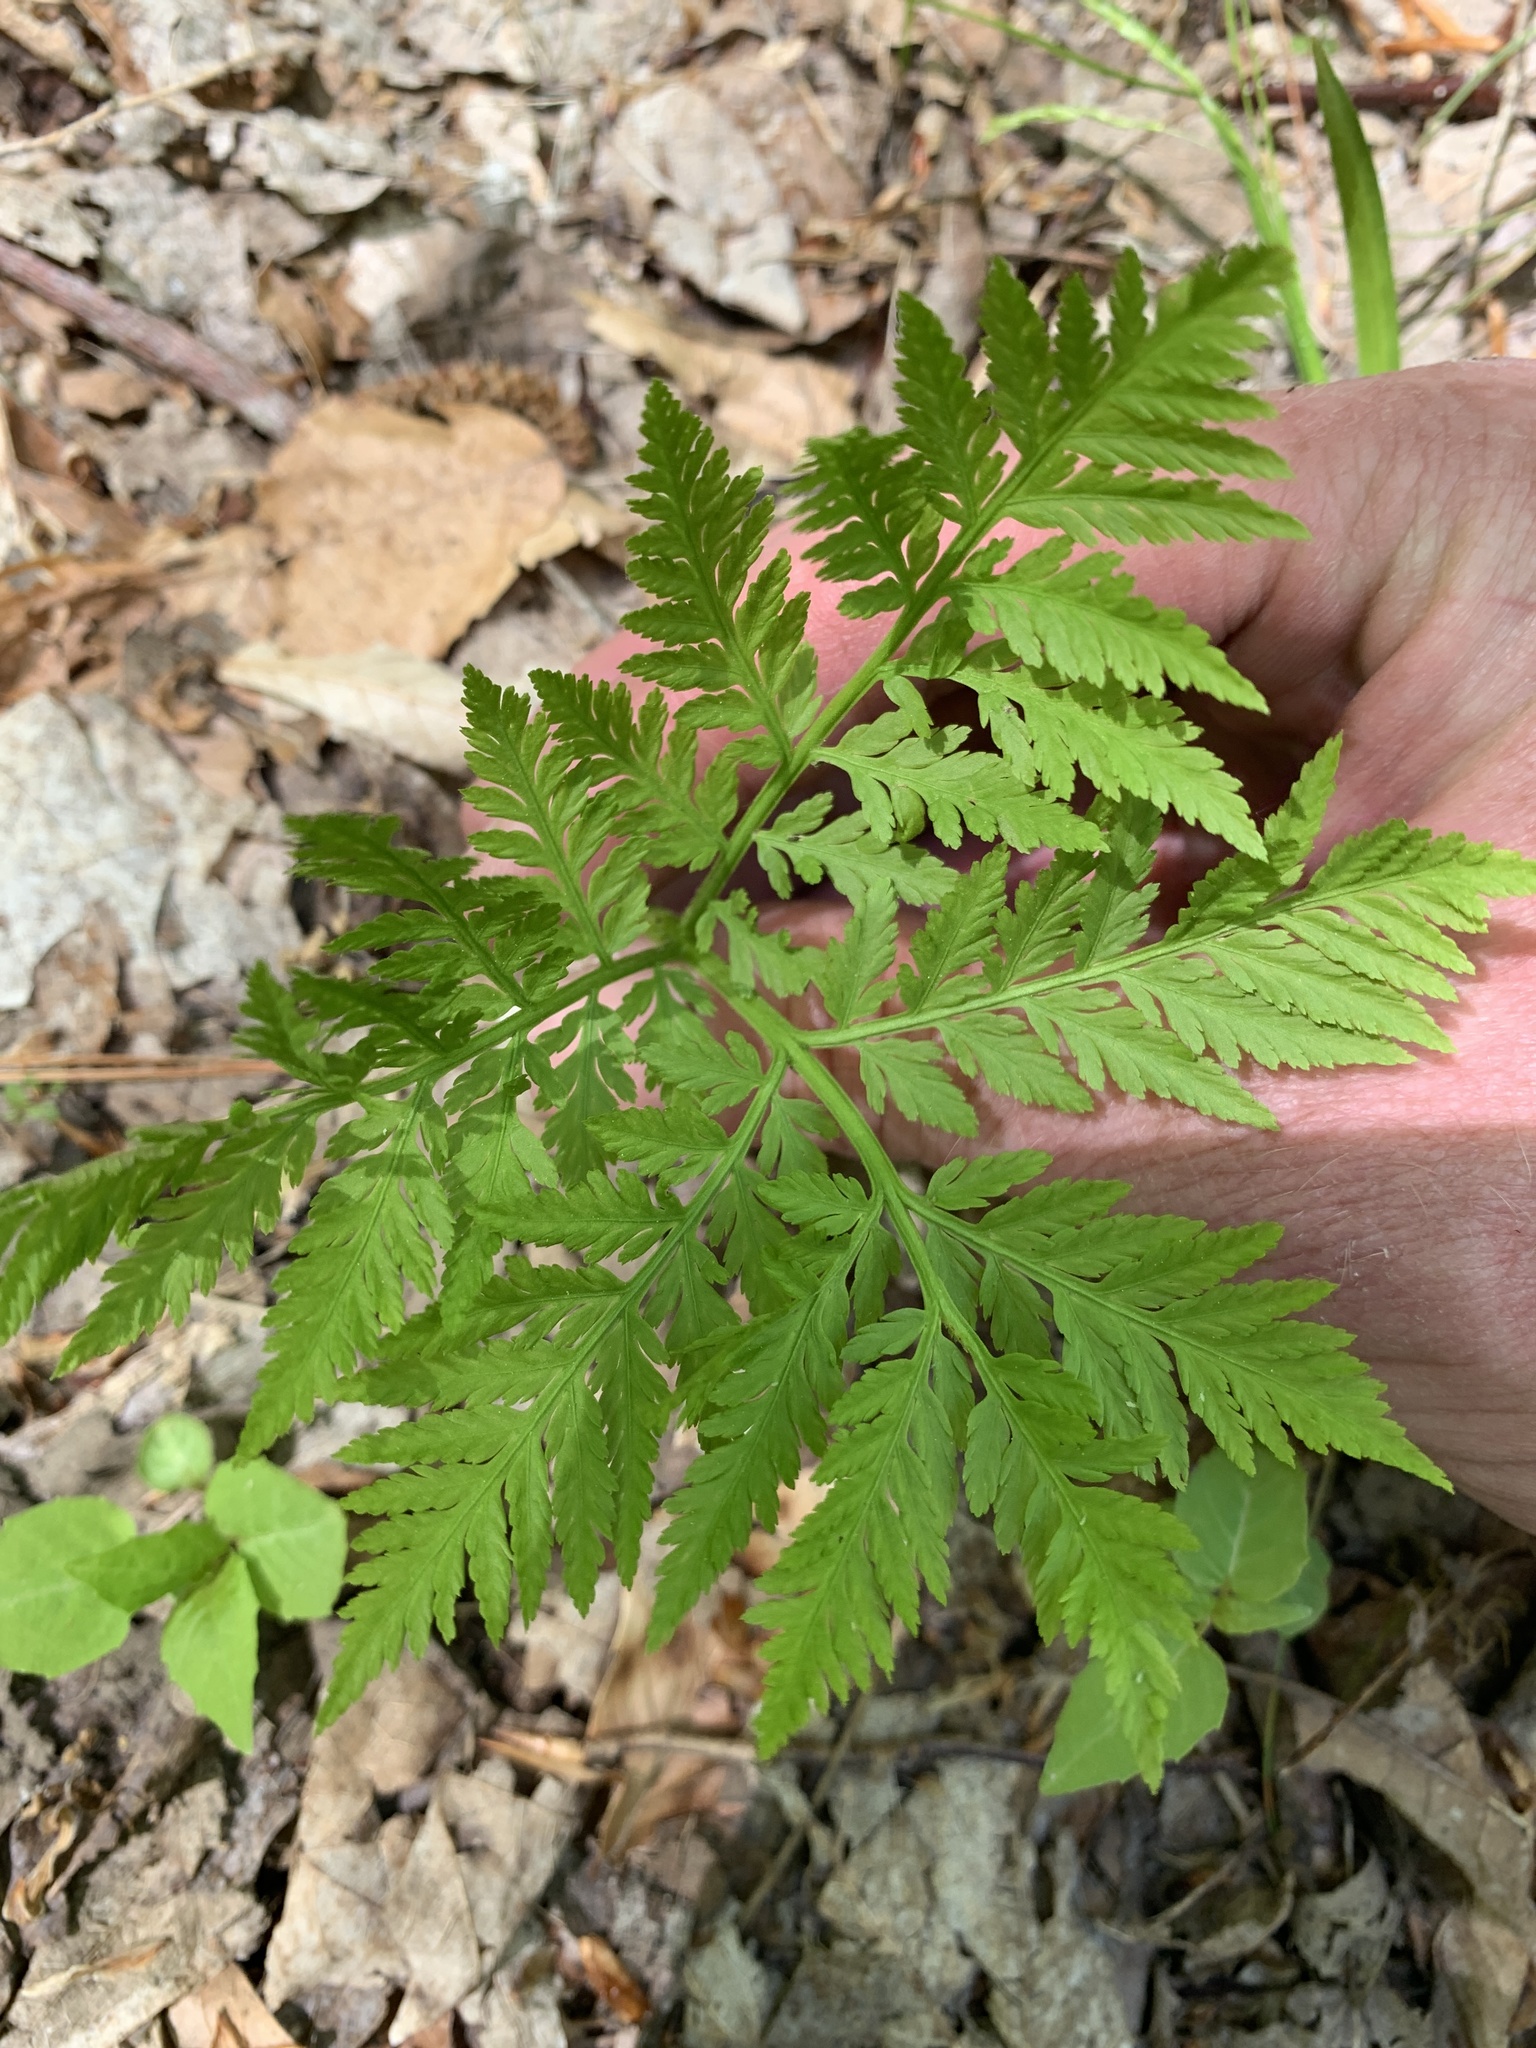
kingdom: Plantae
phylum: Tracheophyta
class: Polypodiopsida
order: Ophioglossales
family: Ophioglossaceae
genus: Botrypus
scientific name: Botrypus virginianus
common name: Common grapefern
